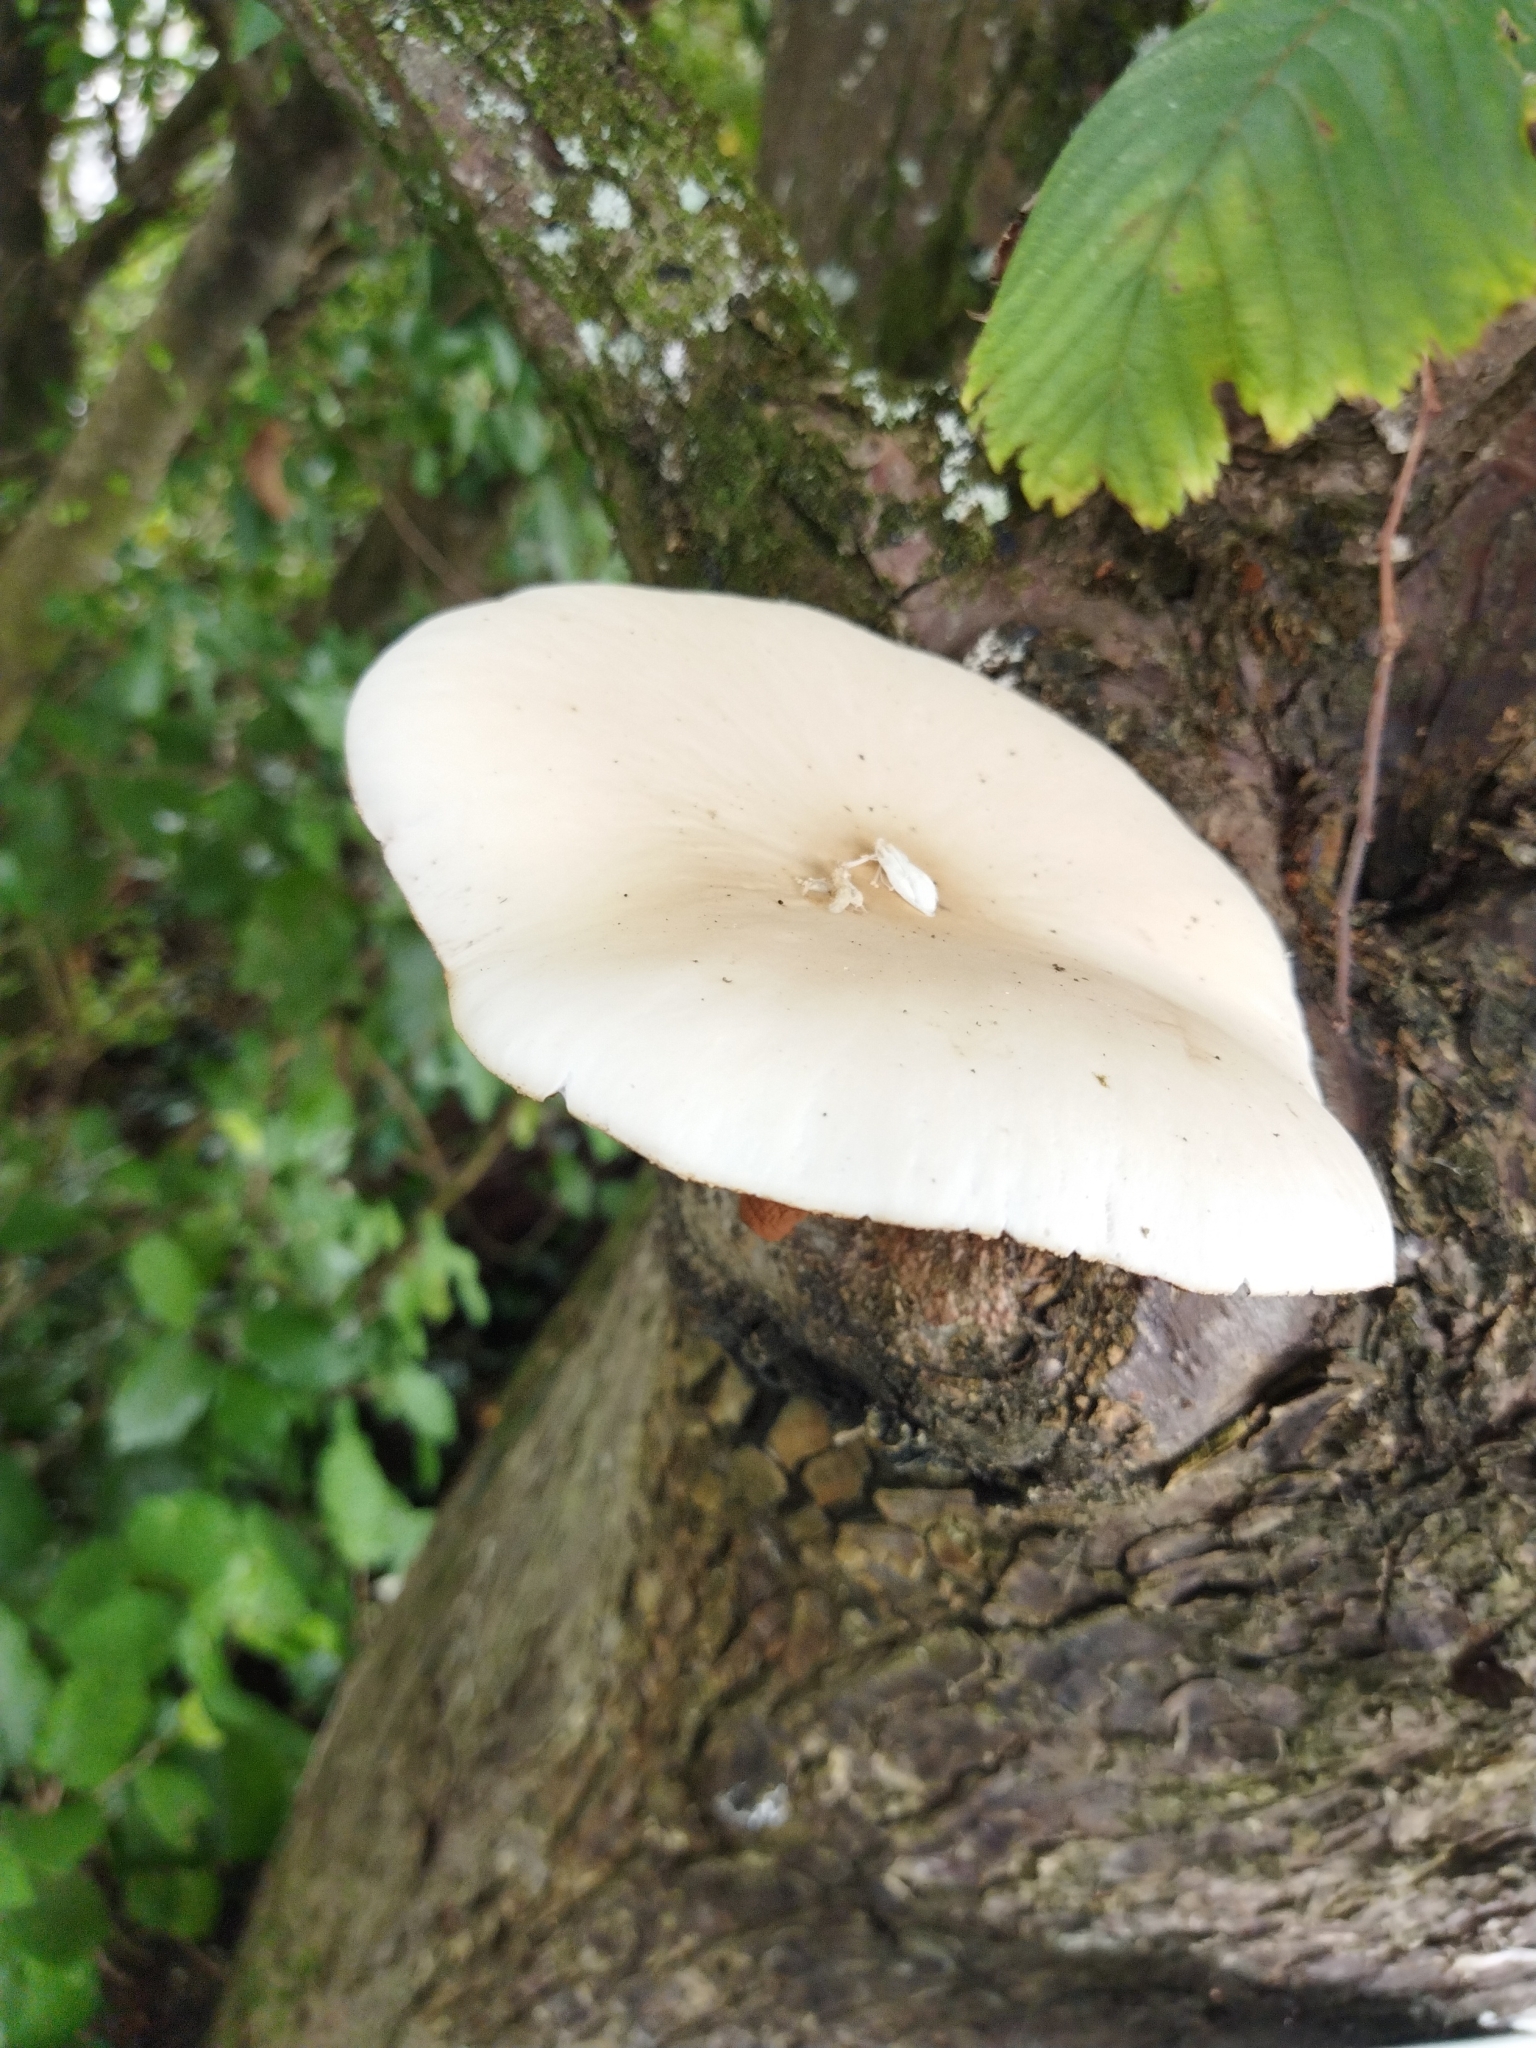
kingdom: Fungi
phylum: Basidiomycota
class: Agaricomycetes
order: Agaricales
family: Tubariaceae
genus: Cyclocybe
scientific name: Cyclocybe parasitica
